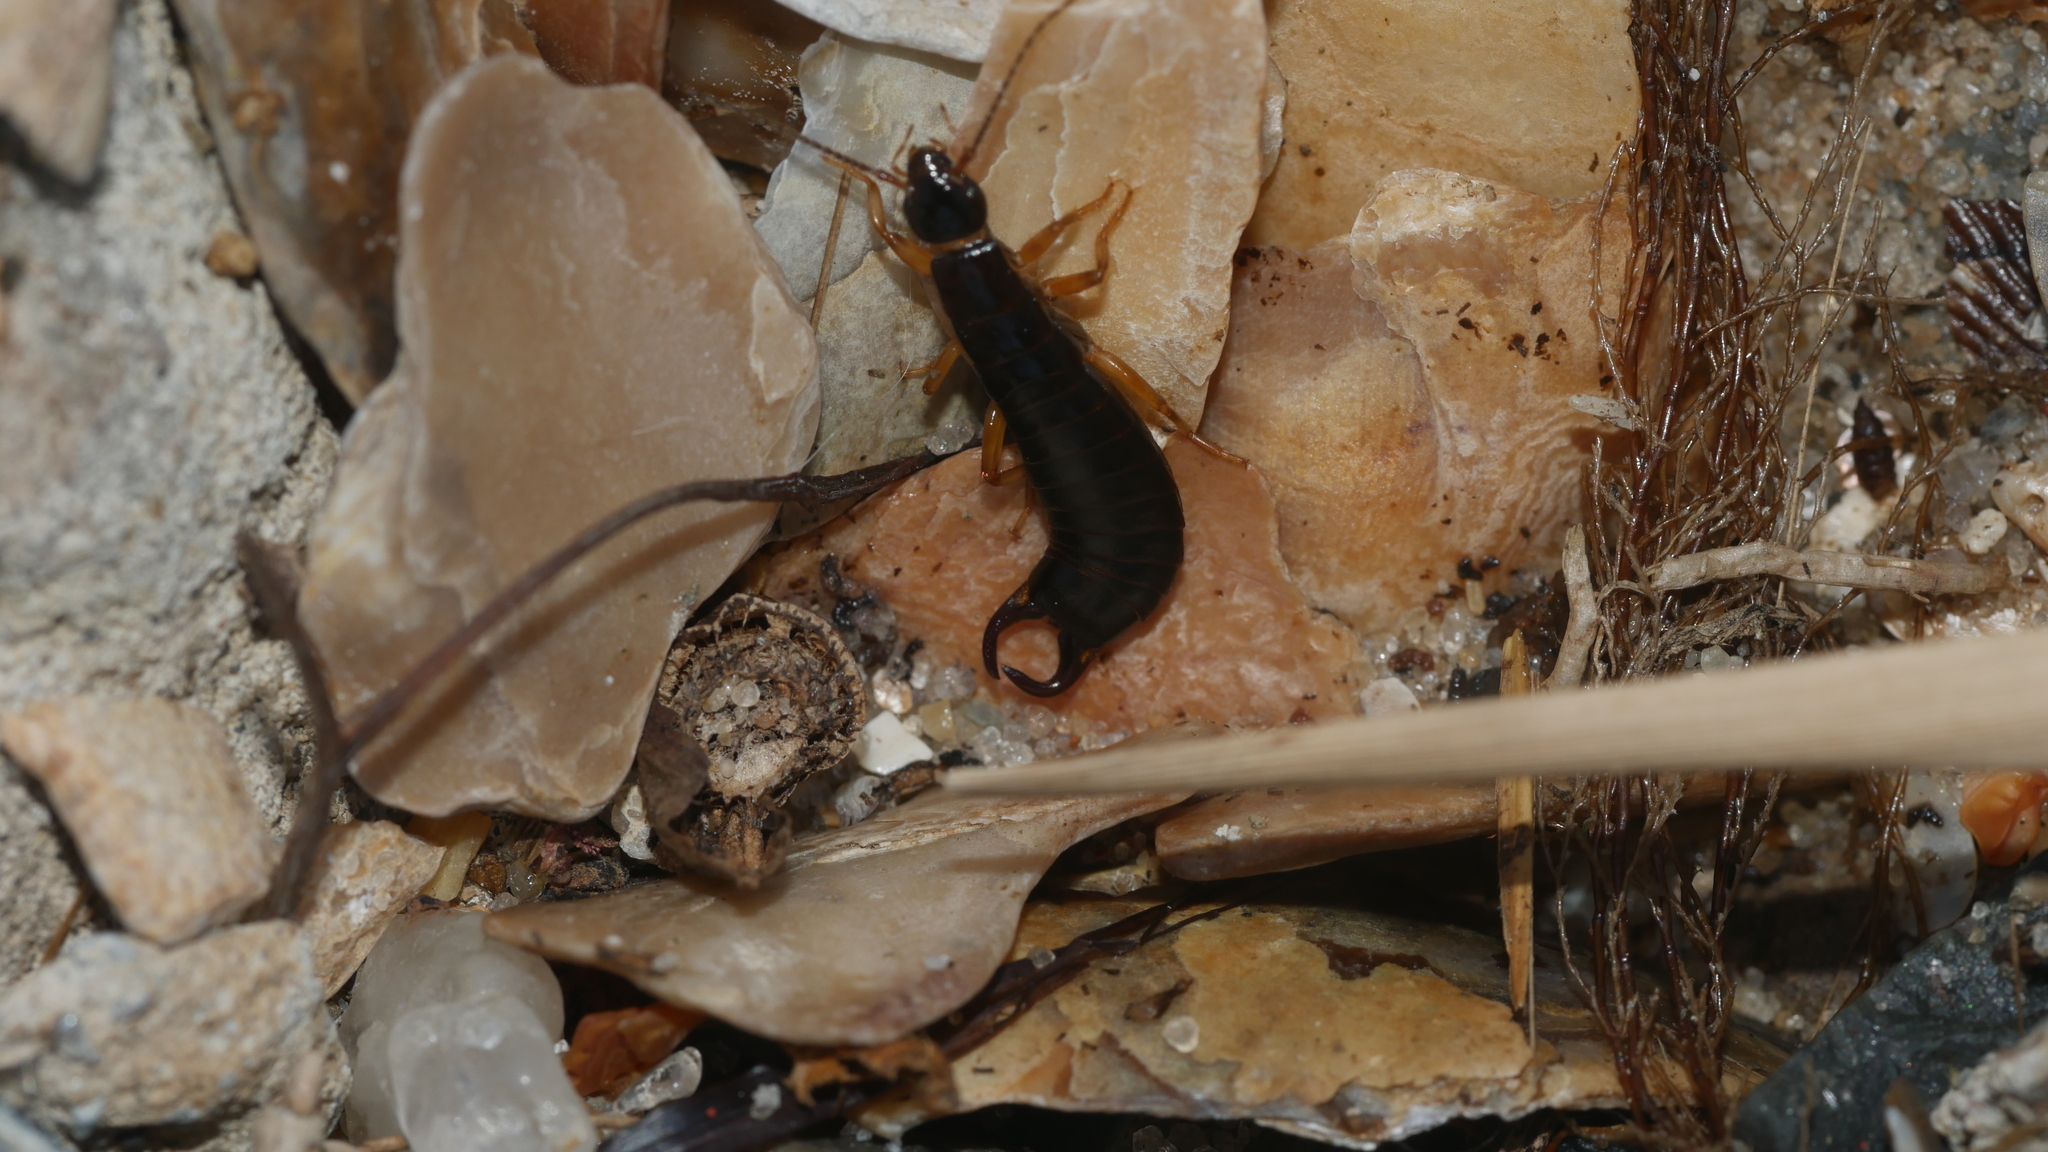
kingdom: Animalia
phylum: Arthropoda
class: Insecta
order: Dermaptera
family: Anisolabididae
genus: Anisolabis
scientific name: Anisolabis maritima
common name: Maritime earwig
